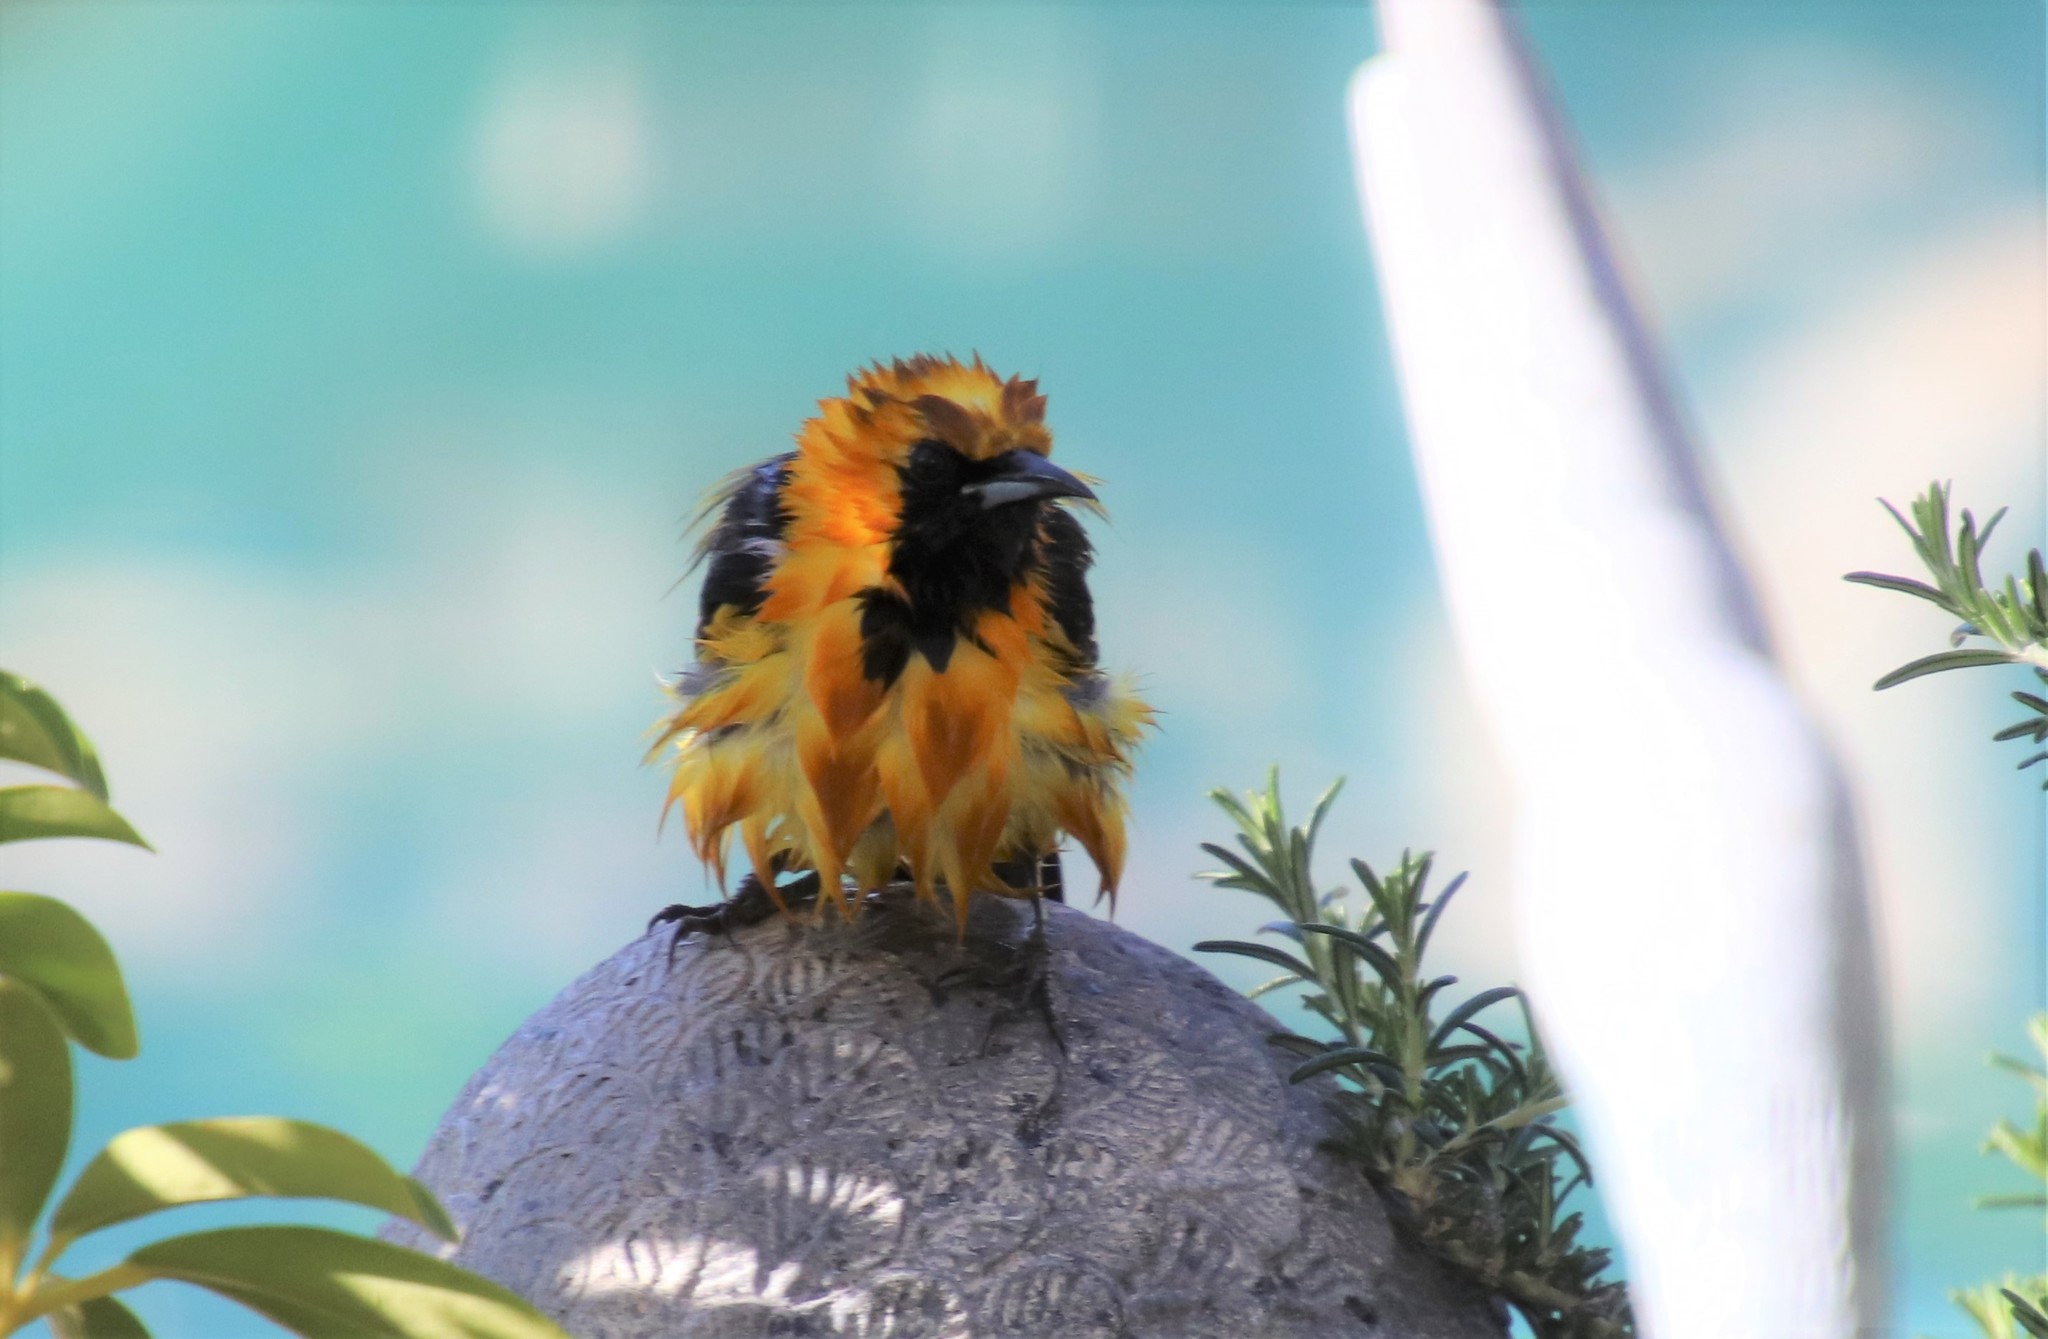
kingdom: Animalia
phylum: Chordata
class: Aves
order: Passeriformes
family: Icteridae
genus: Icterus
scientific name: Icterus cucullatus
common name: Hooded oriole
